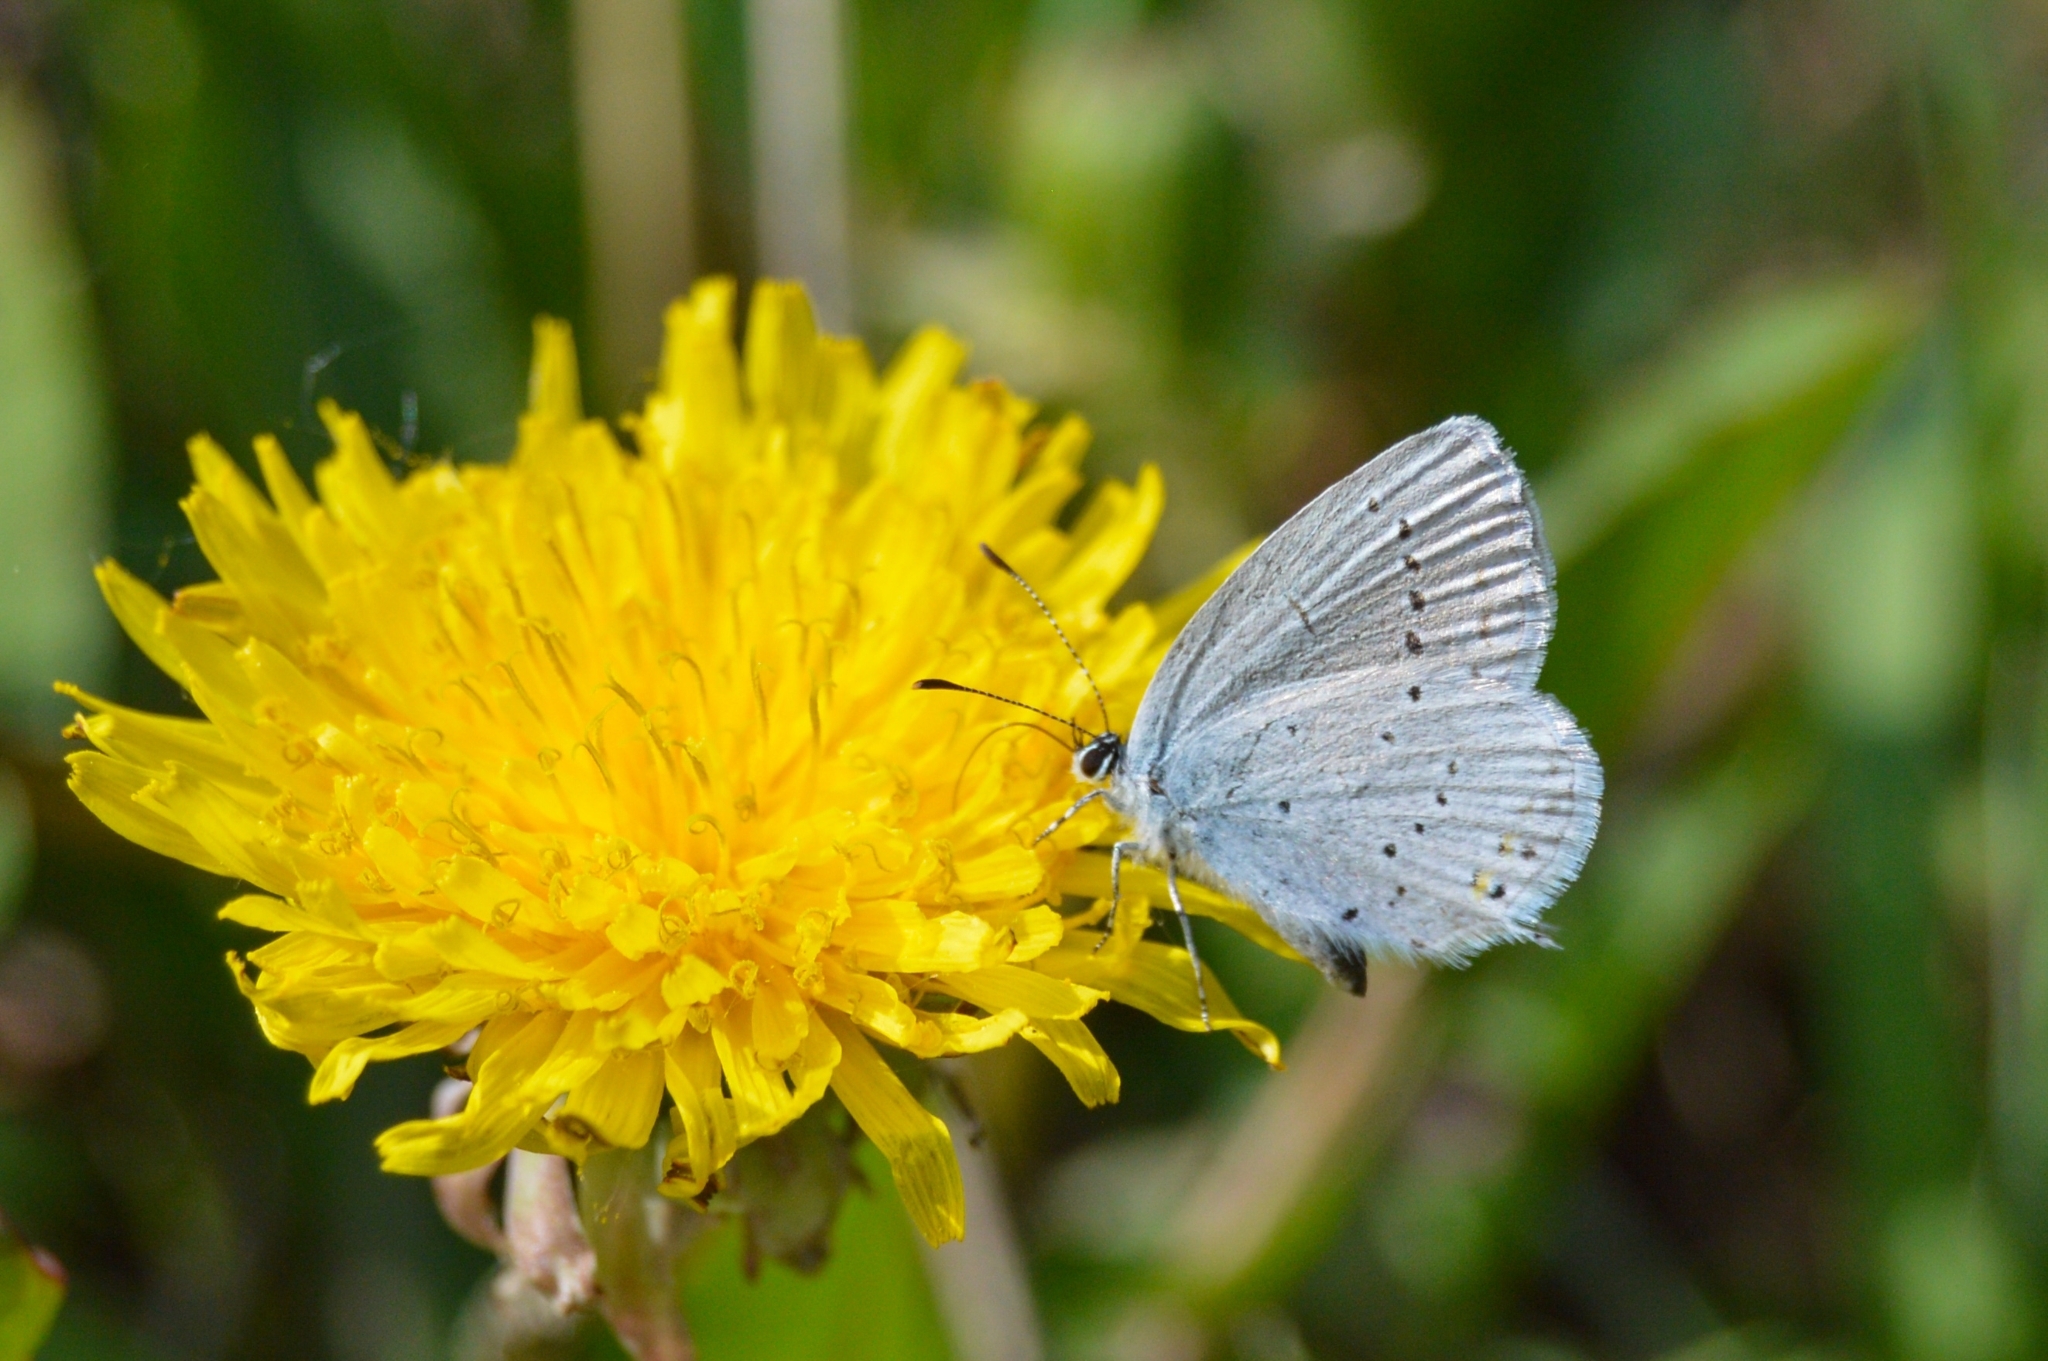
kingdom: Animalia
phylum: Arthropoda
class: Insecta
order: Lepidoptera
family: Lycaenidae
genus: Elkalyce
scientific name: Elkalyce argiades
